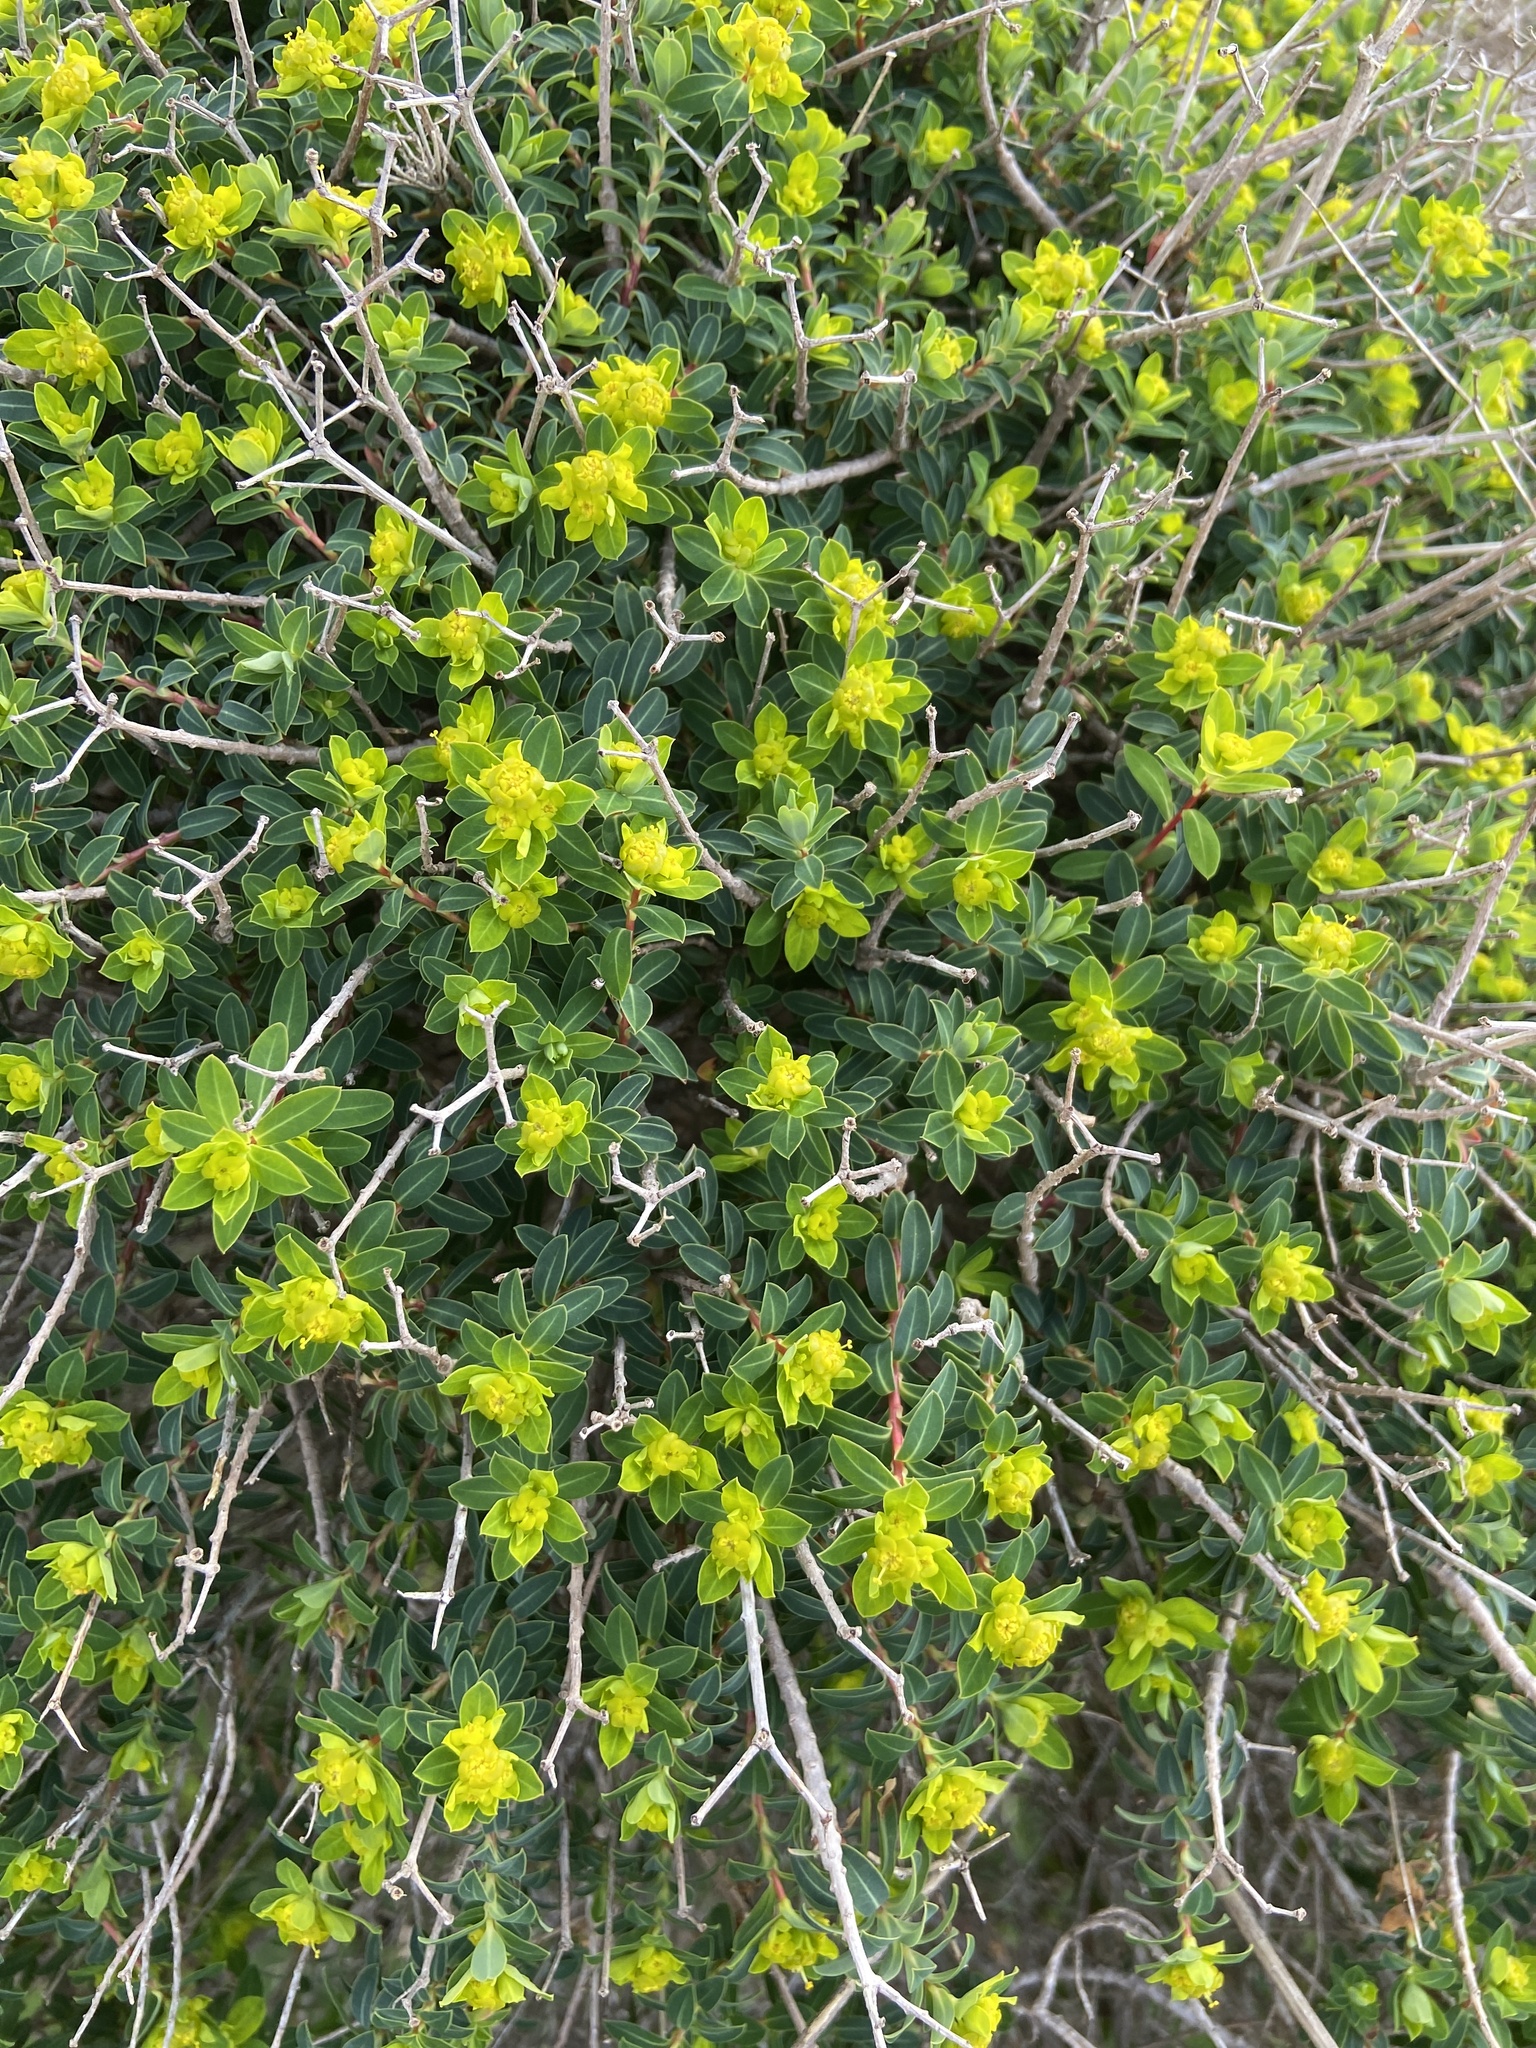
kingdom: Plantae
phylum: Tracheophyta
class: Magnoliopsida
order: Malpighiales
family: Euphorbiaceae
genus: Euphorbia
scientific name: Euphorbia melitensis
